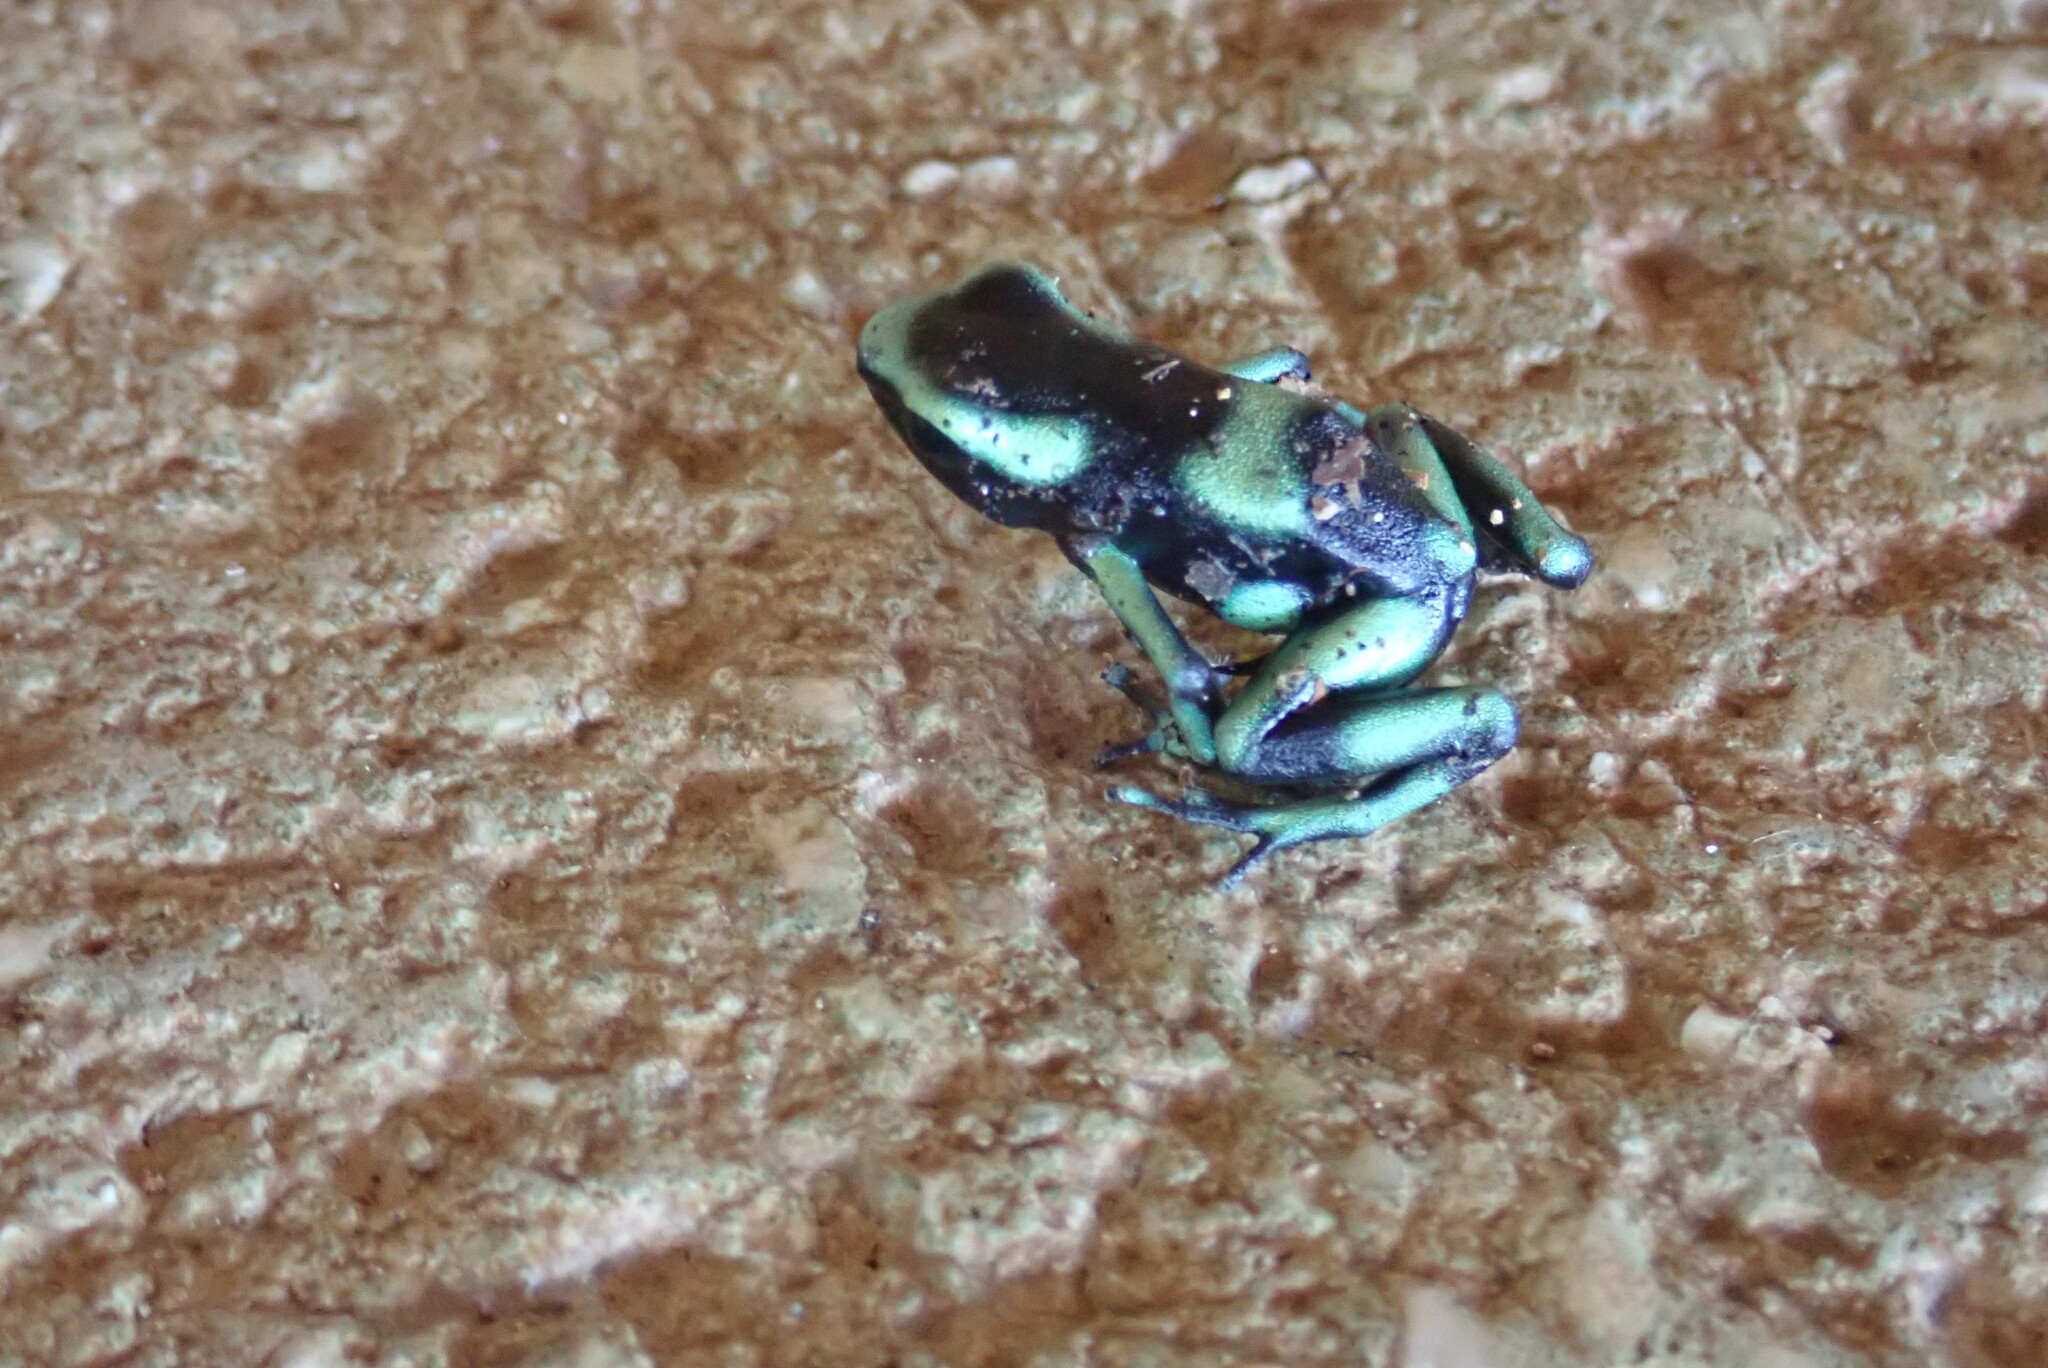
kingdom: Animalia
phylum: Chordata
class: Amphibia
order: Anura
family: Dendrobatidae
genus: Dendrobates
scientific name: Dendrobates auratus
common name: Green and black poison dart frog
